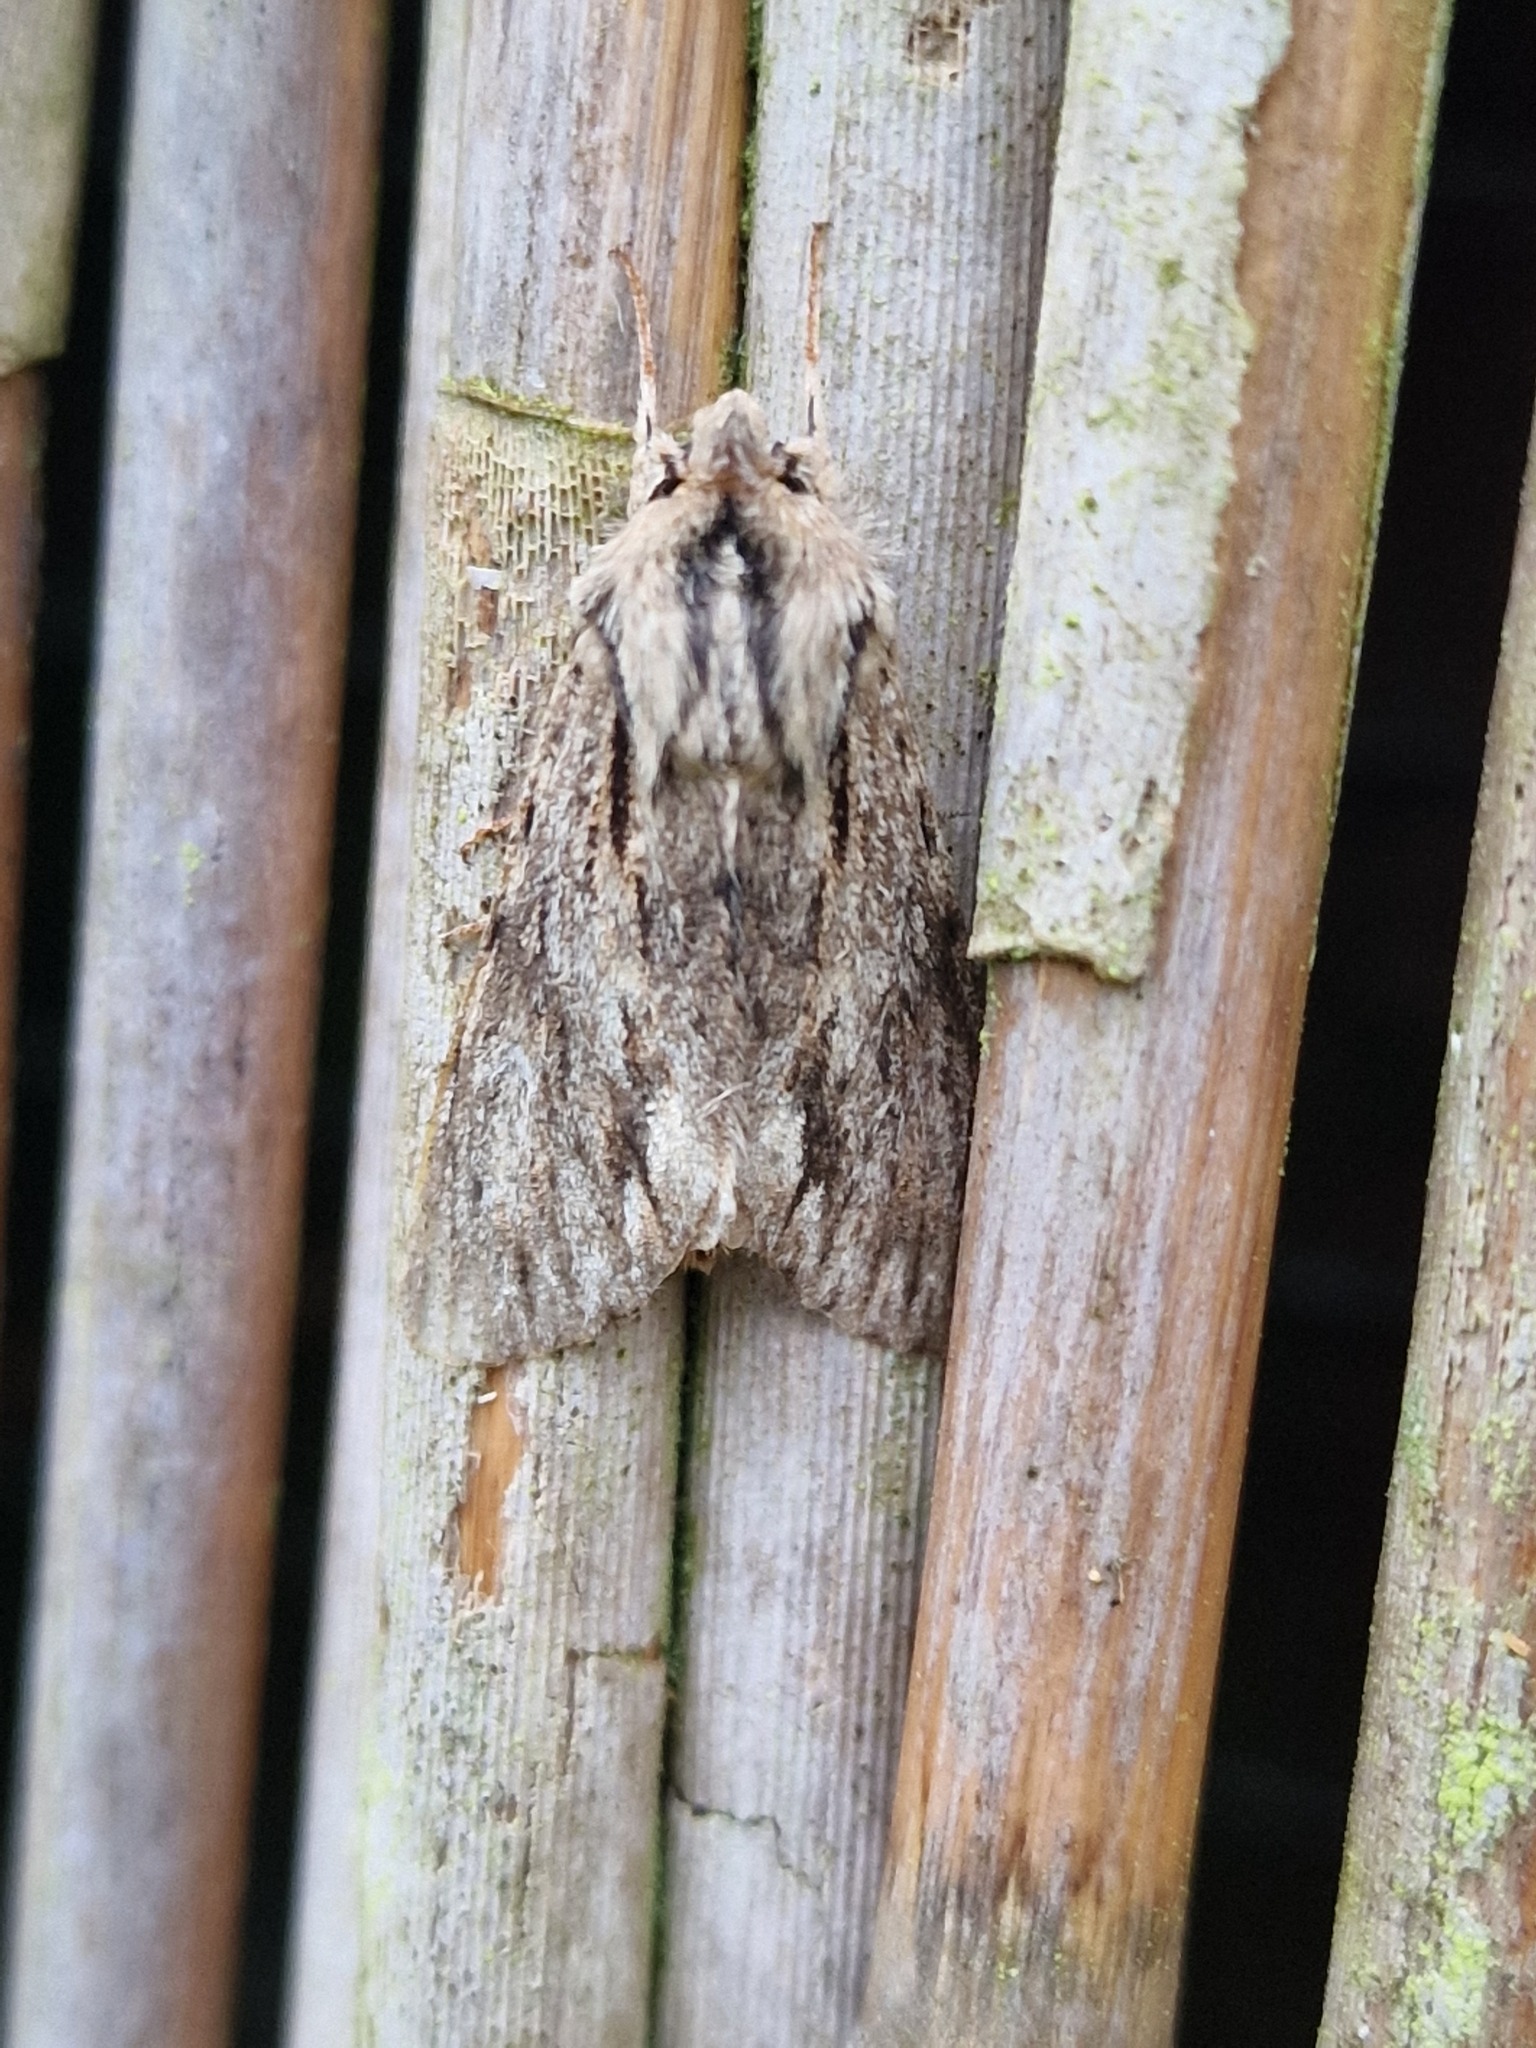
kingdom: Animalia
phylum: Arthropoda
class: Insecta
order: Lepidoptera
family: Noctuidae
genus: Asteroscopus
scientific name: Asteroscopus sphinx
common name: The sprawler
